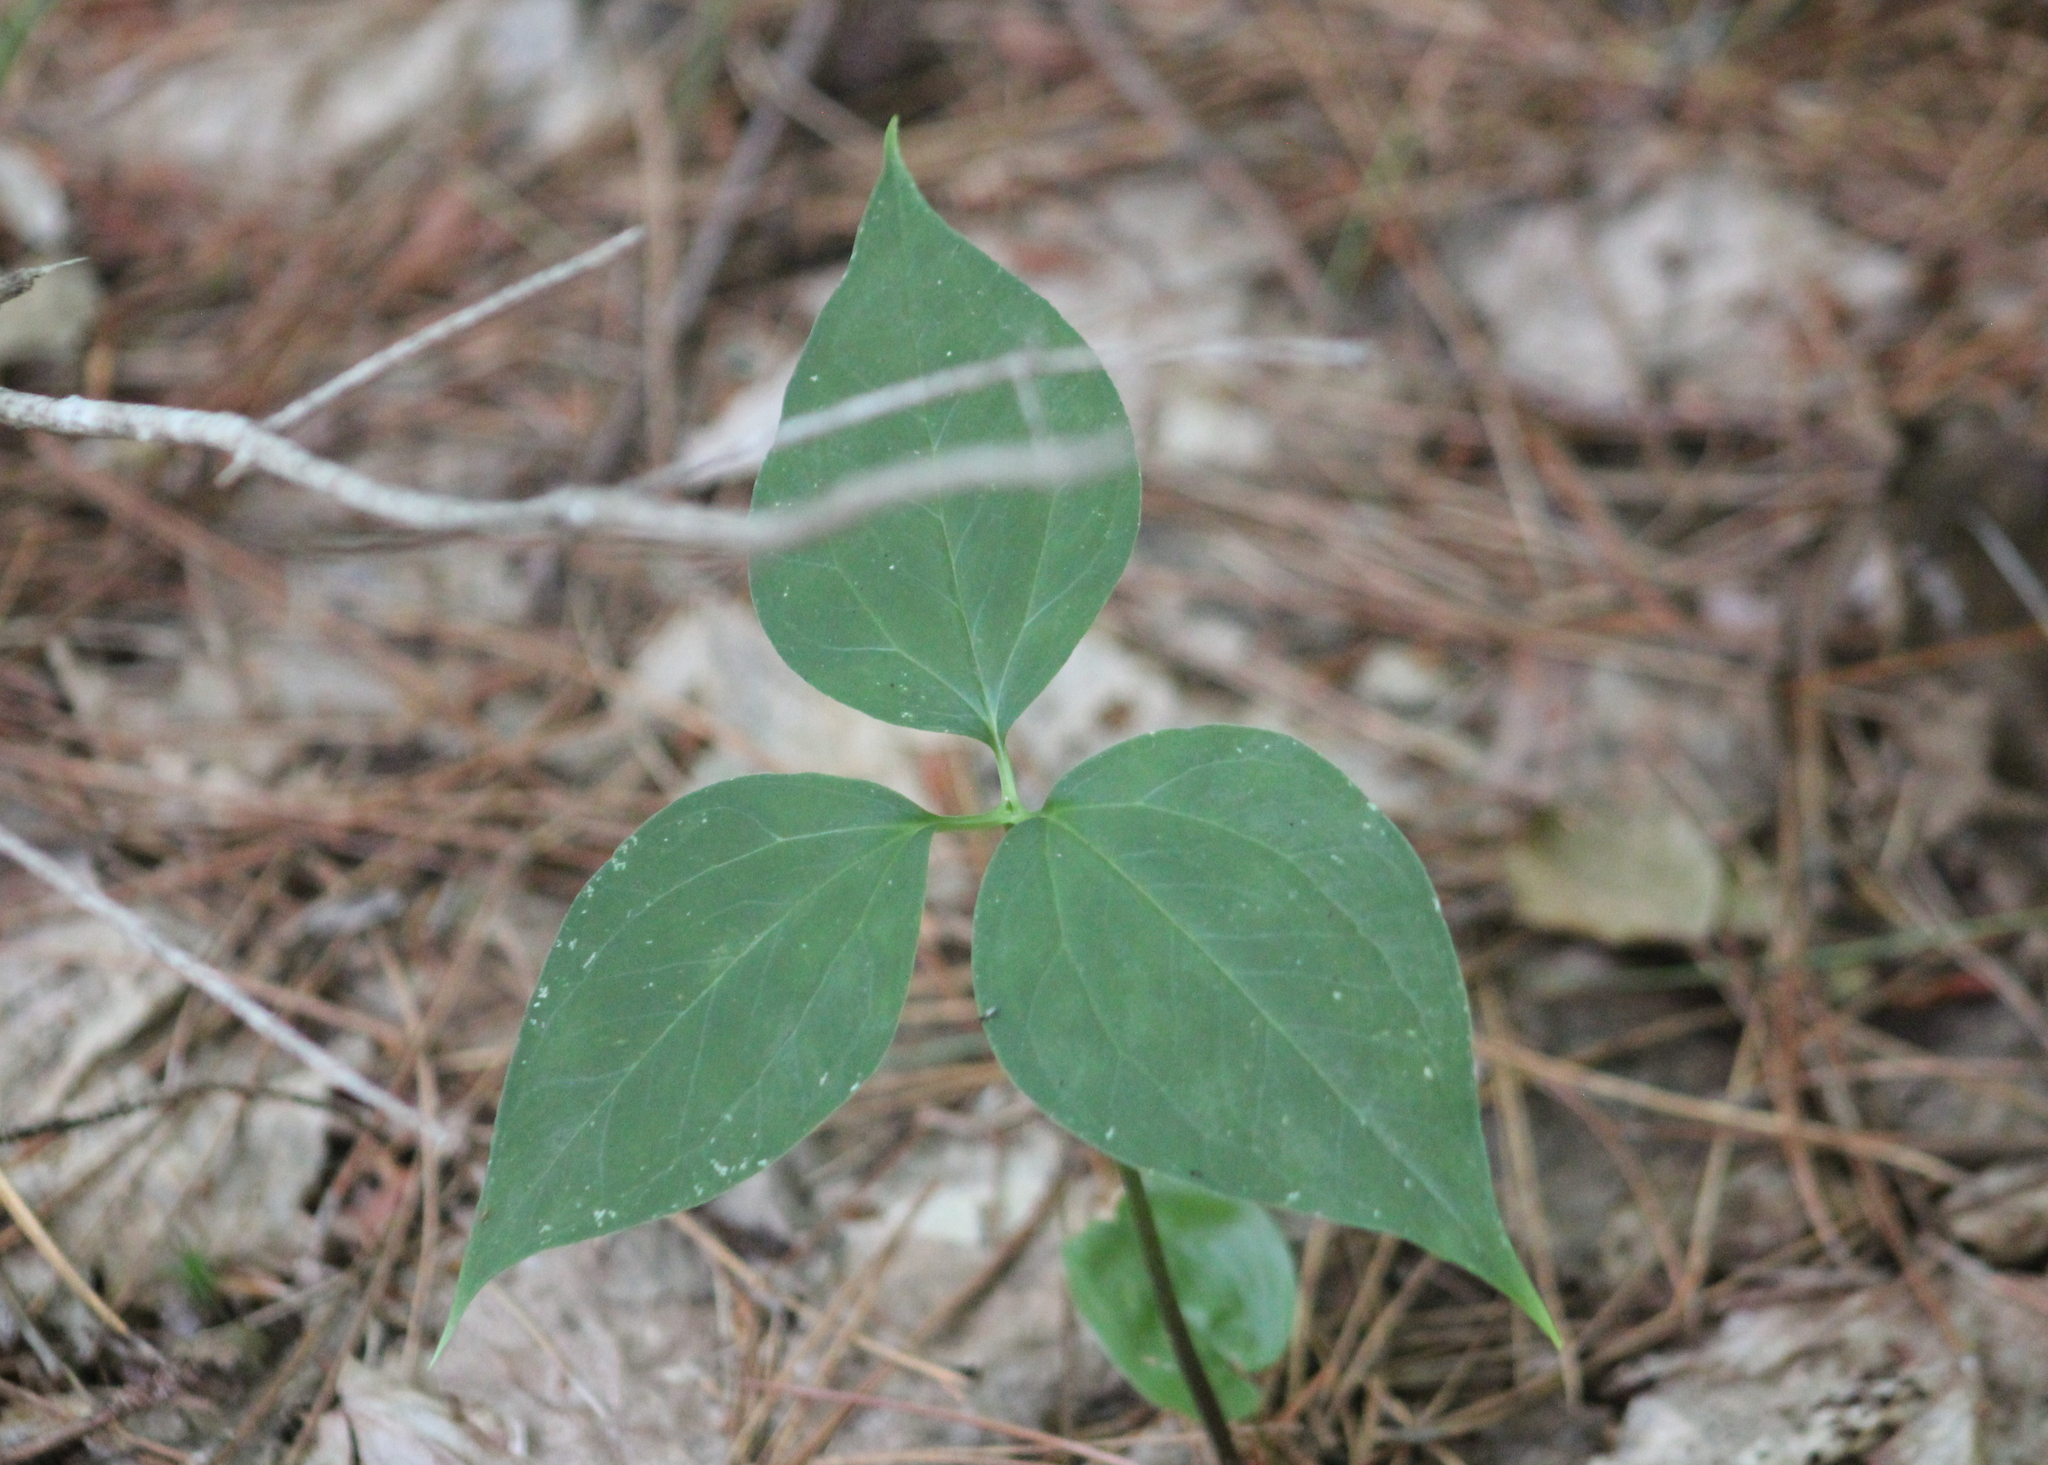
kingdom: Plantae
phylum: Tracheophyta
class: Liliopsida
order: Liliales
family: Melanthiaceae
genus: Trillium
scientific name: Trillium undulatum
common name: Paint trillium
